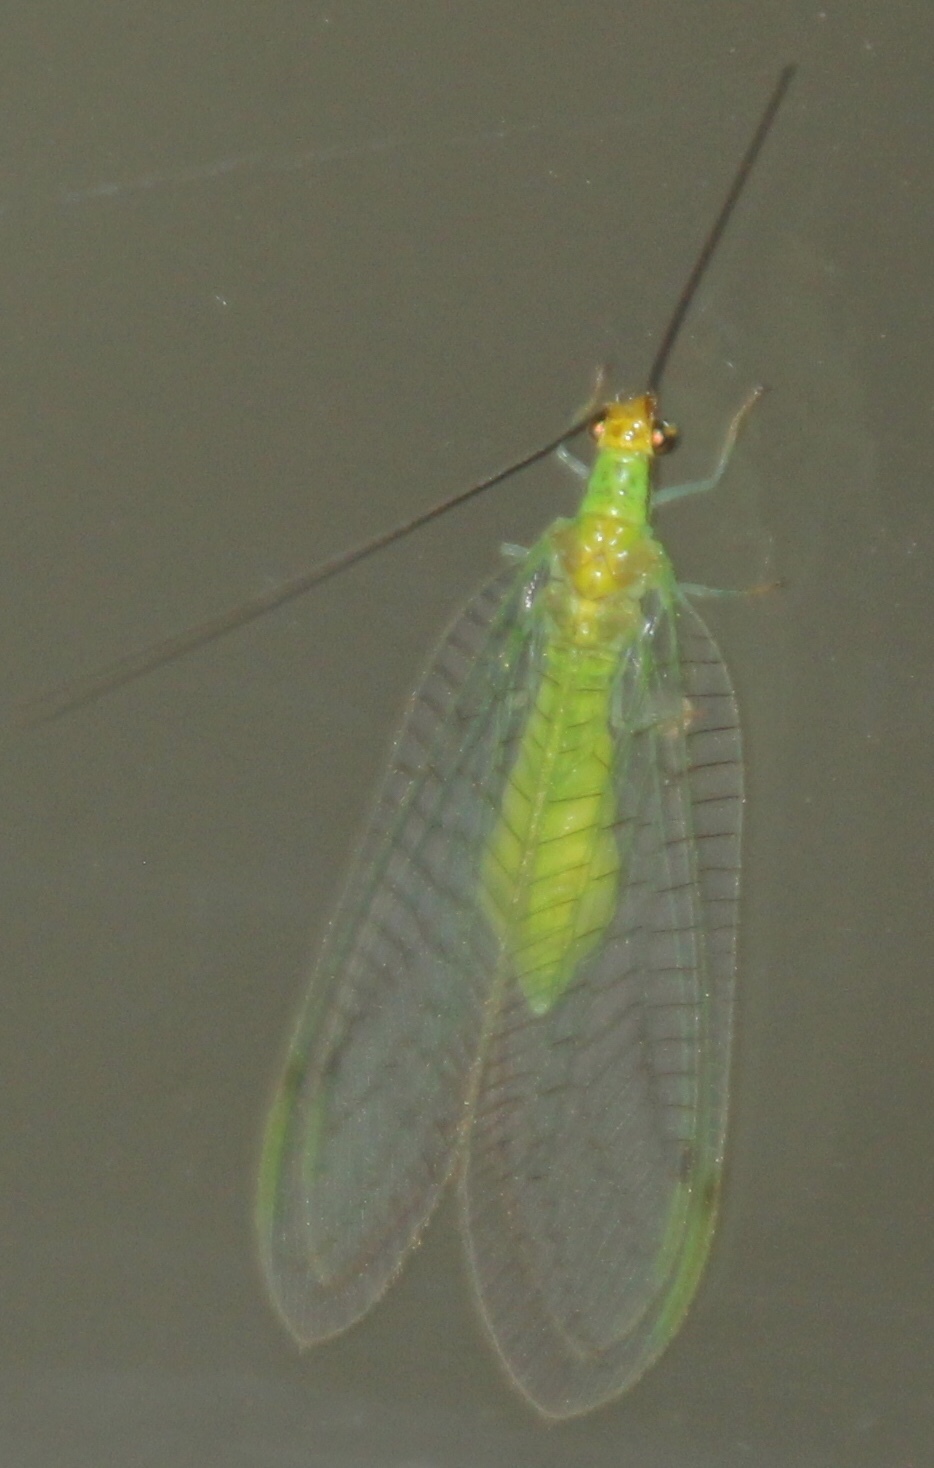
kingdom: Animalia
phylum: Arthropoda
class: Insecta
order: Neuroptera
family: Chrysopidae
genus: Leucochrysa
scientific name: Leucochrysa pavida
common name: Lichen-carrying green lacewing
